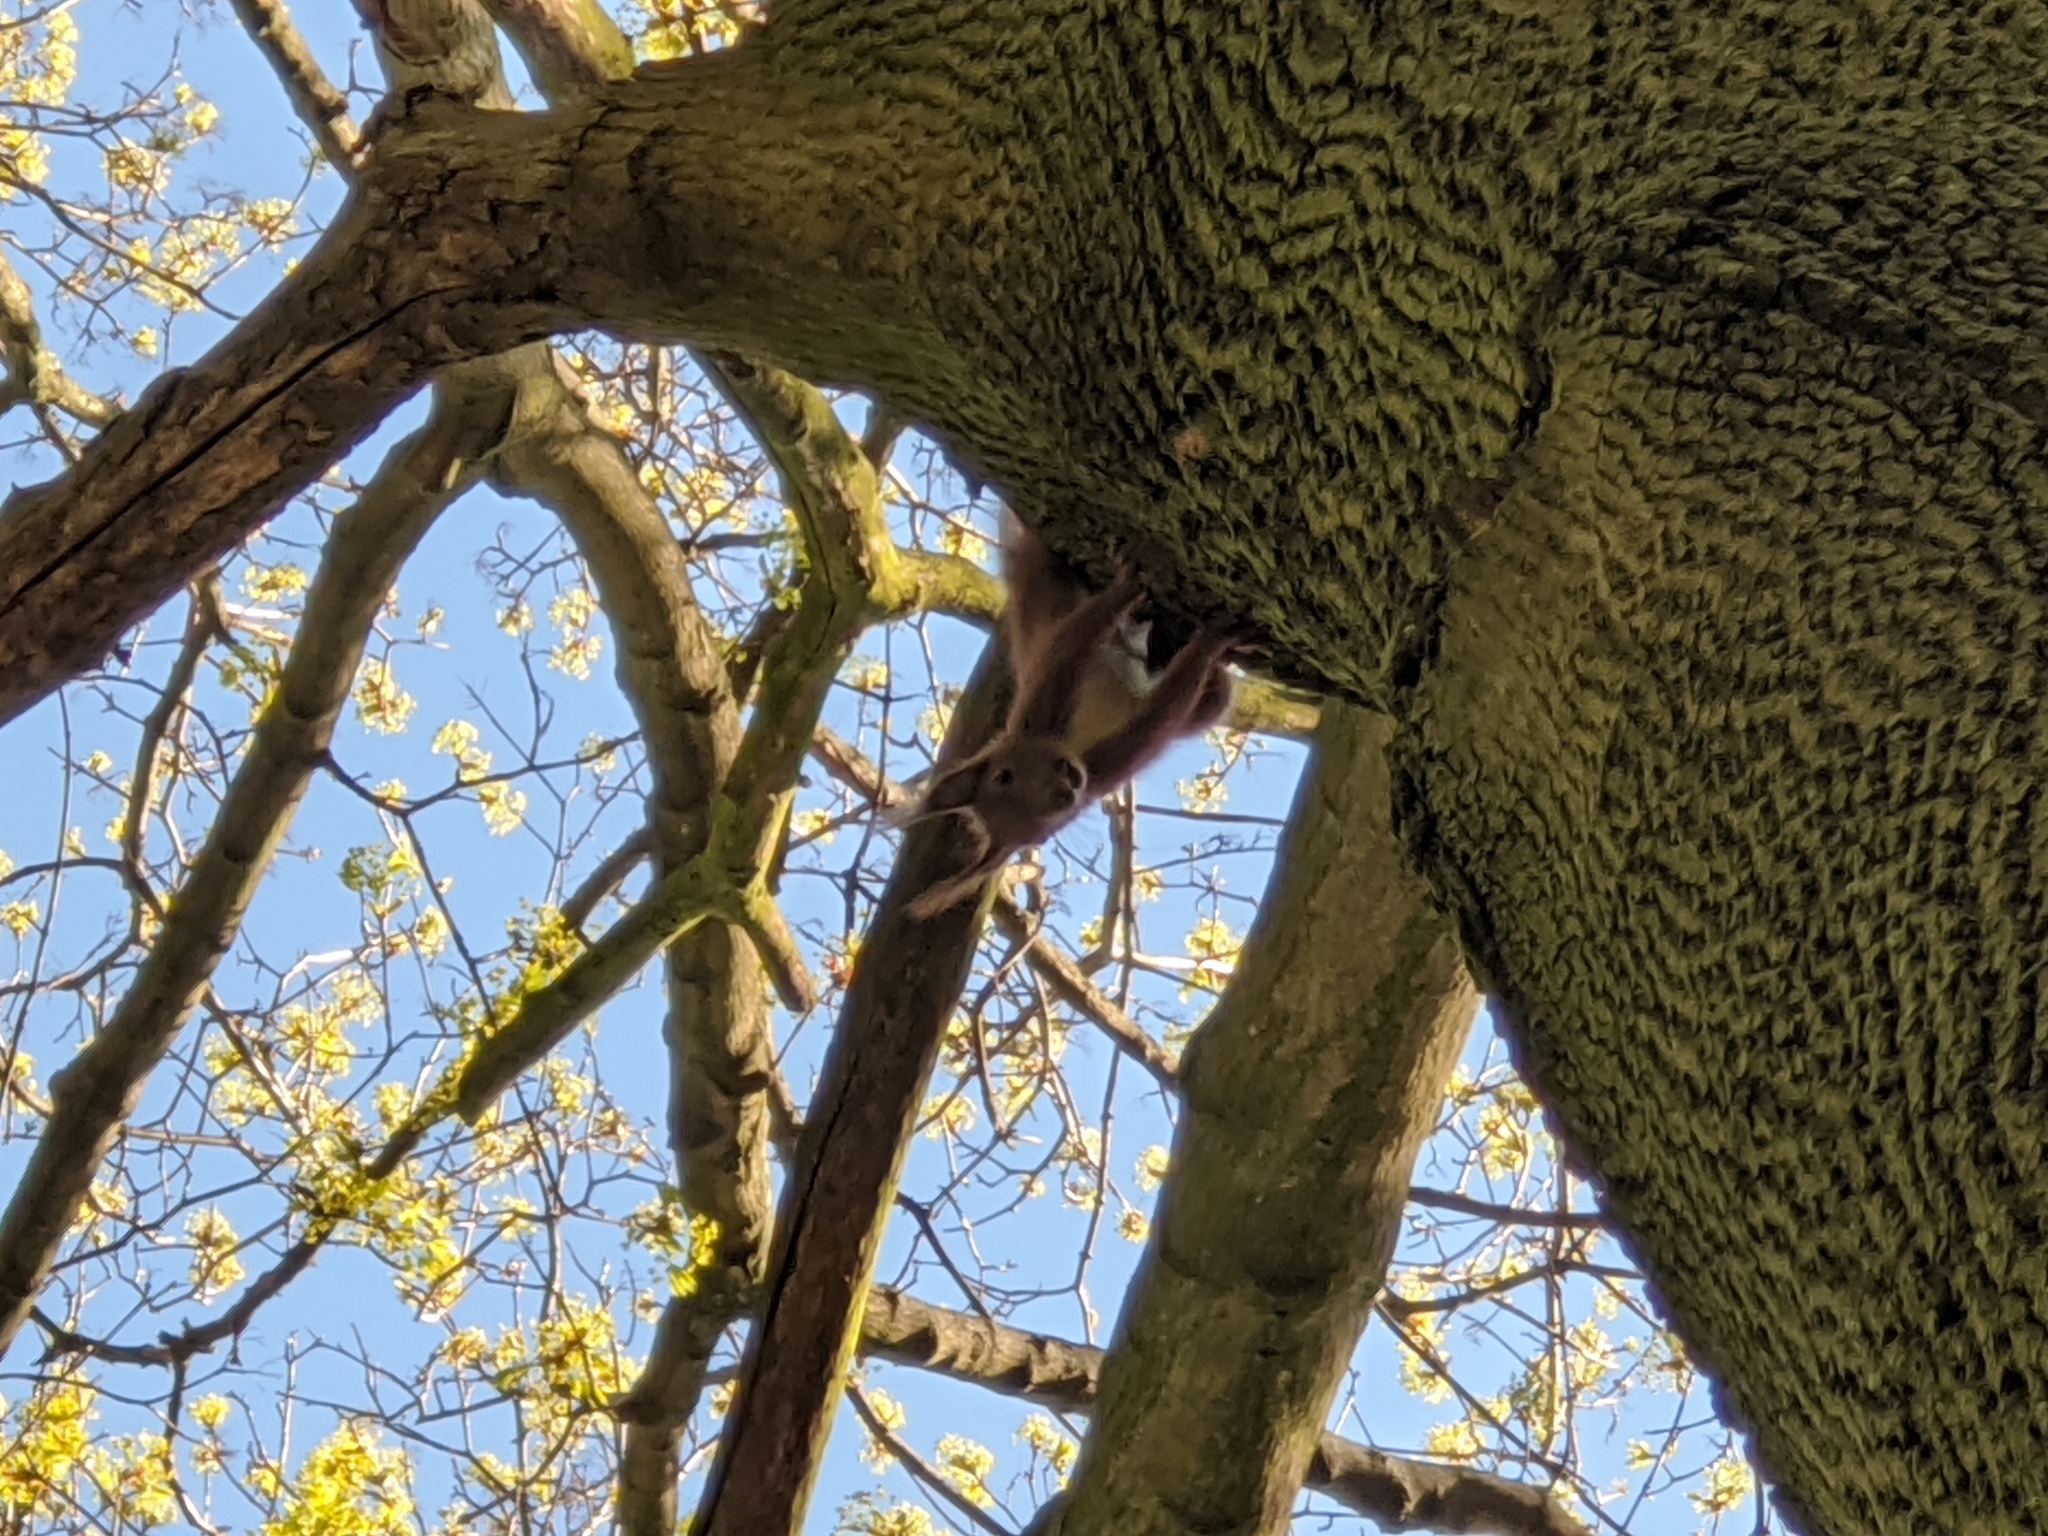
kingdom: Animalia
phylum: Chordata
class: Mammalia
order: Rodentia
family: Sciuridae
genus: Sciurus
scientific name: Sciurus vulgaris
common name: Eurasian red squirrel
